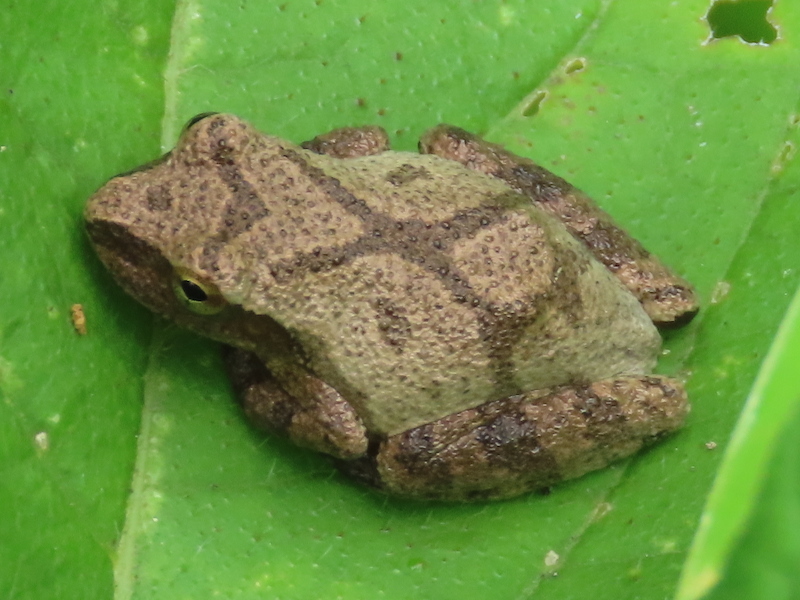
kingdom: Animalia
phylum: Chordata
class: Amphibia
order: Anura
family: Hylidae
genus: Pseudacris
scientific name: Pseudacris crucifer
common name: Spring peeper
